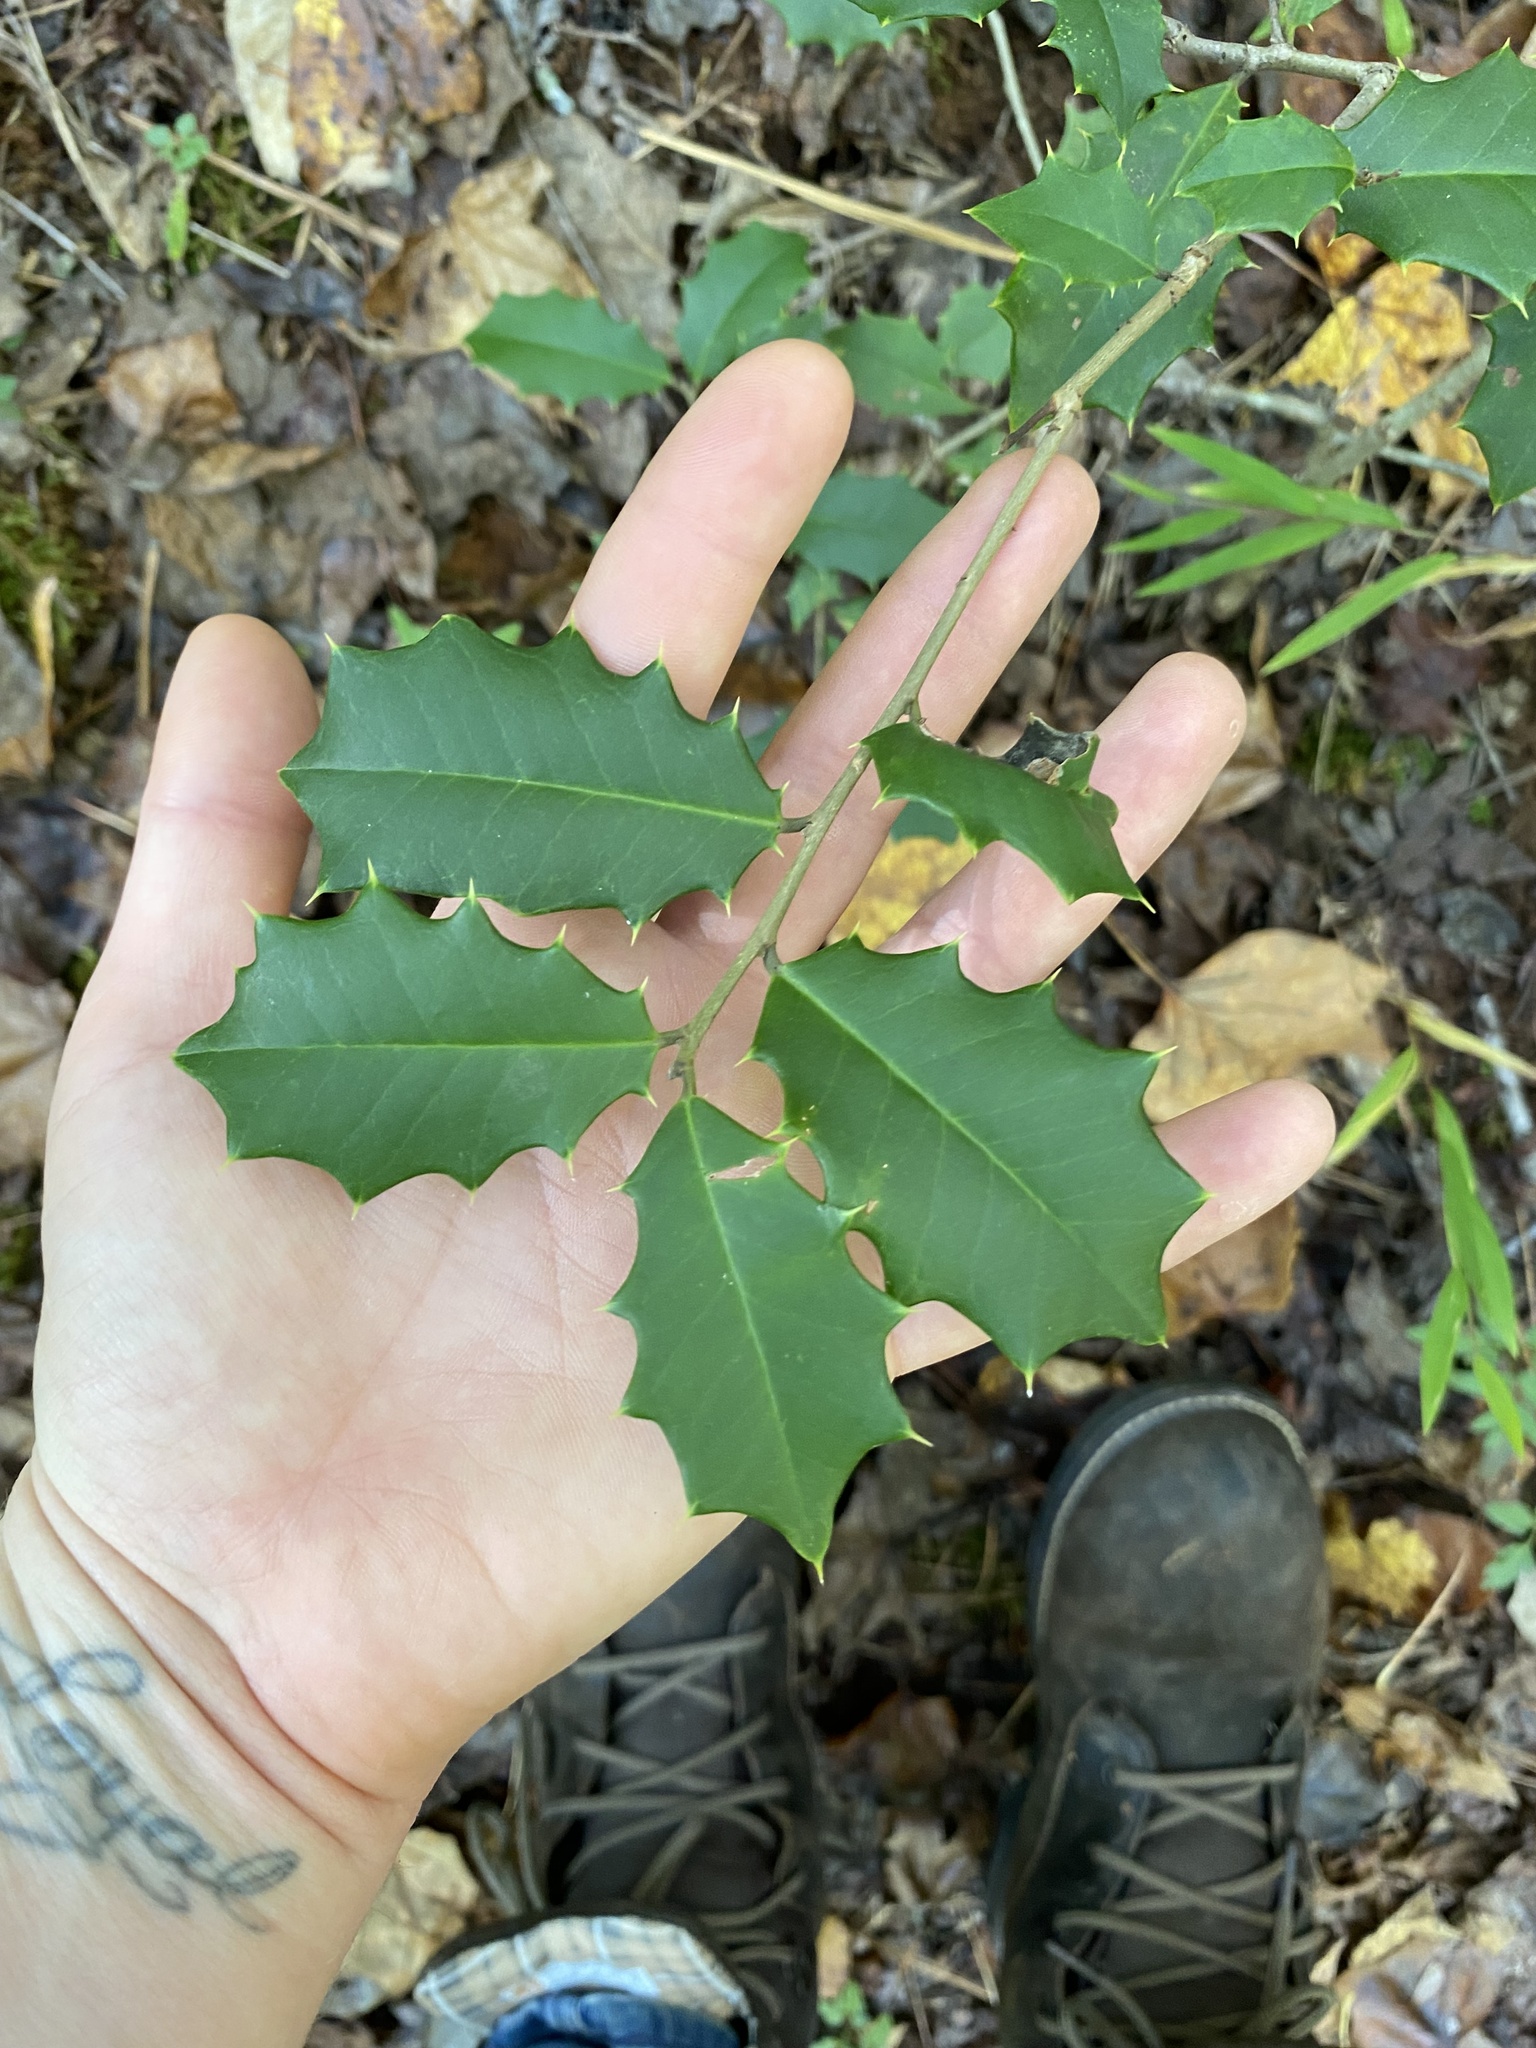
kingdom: Plantae
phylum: Tracheophyta
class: Magnoliopsida
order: Aquifoliales
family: Aquifoliaceae
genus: Ilex
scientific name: Ilex opaca
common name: American holly
